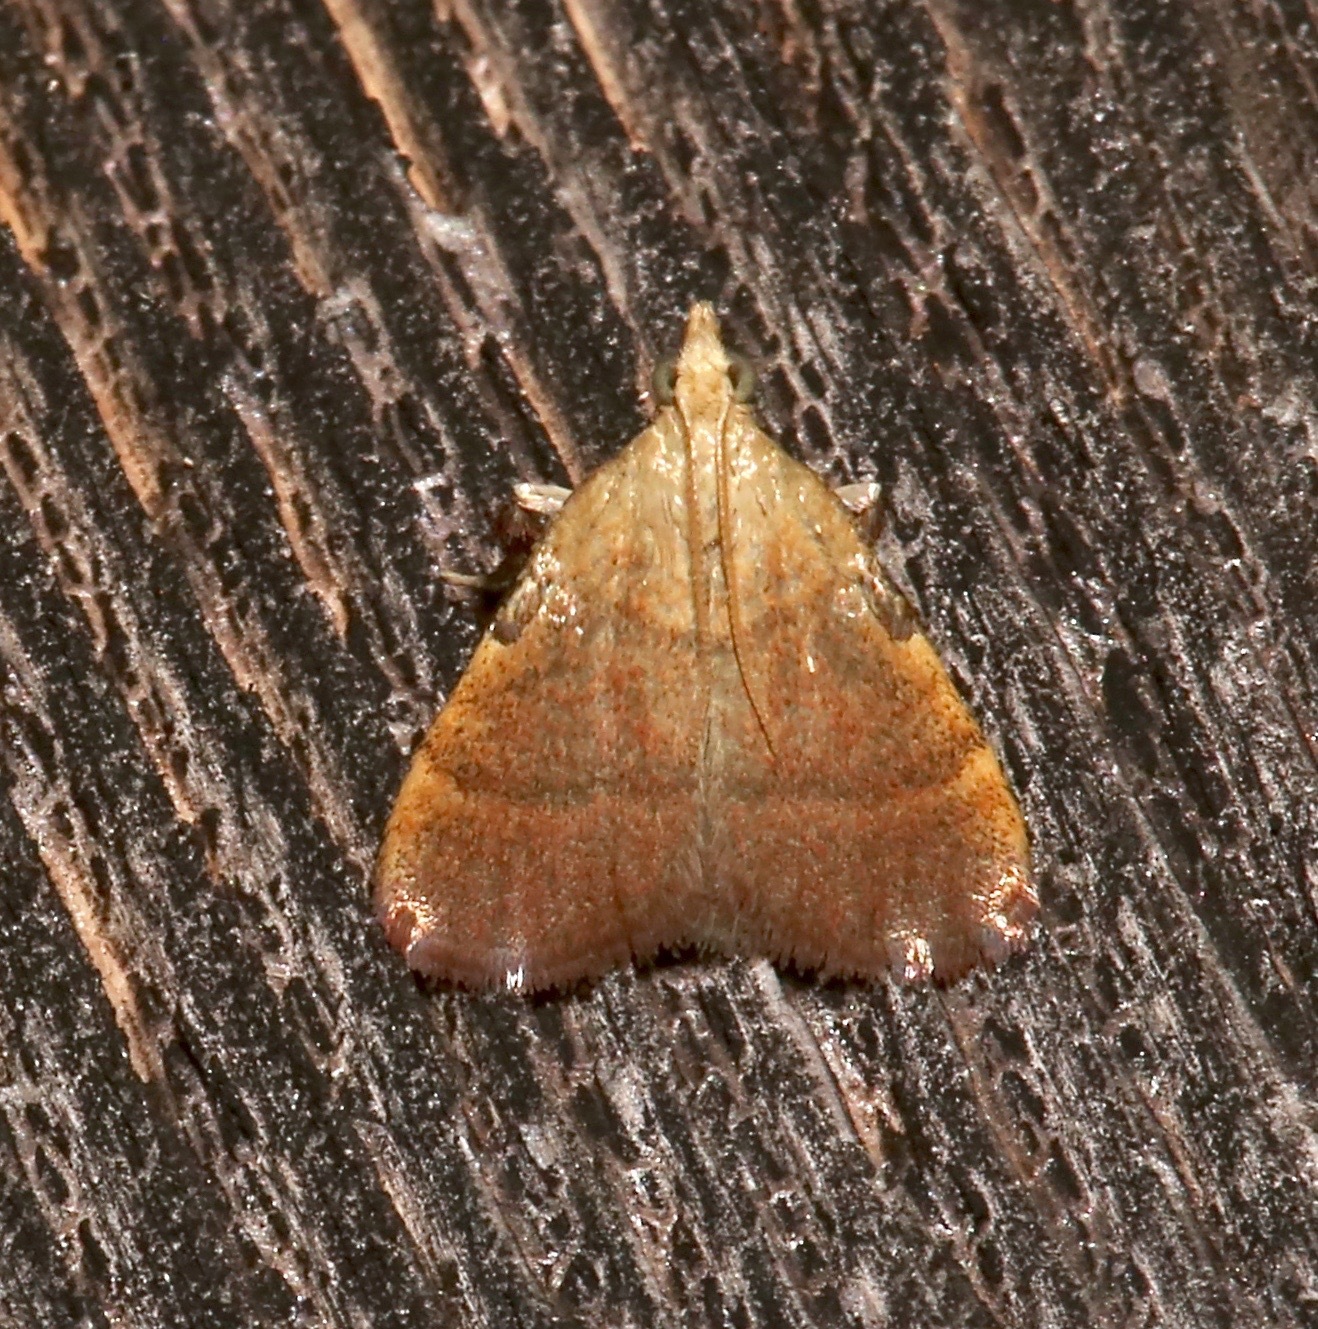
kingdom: Animalia
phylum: Arthropoda
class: Insecta
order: Lepidoptera
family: Pyralidae
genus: Condylolomia
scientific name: Condylolomia participialis
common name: Drab condylolomia moth
